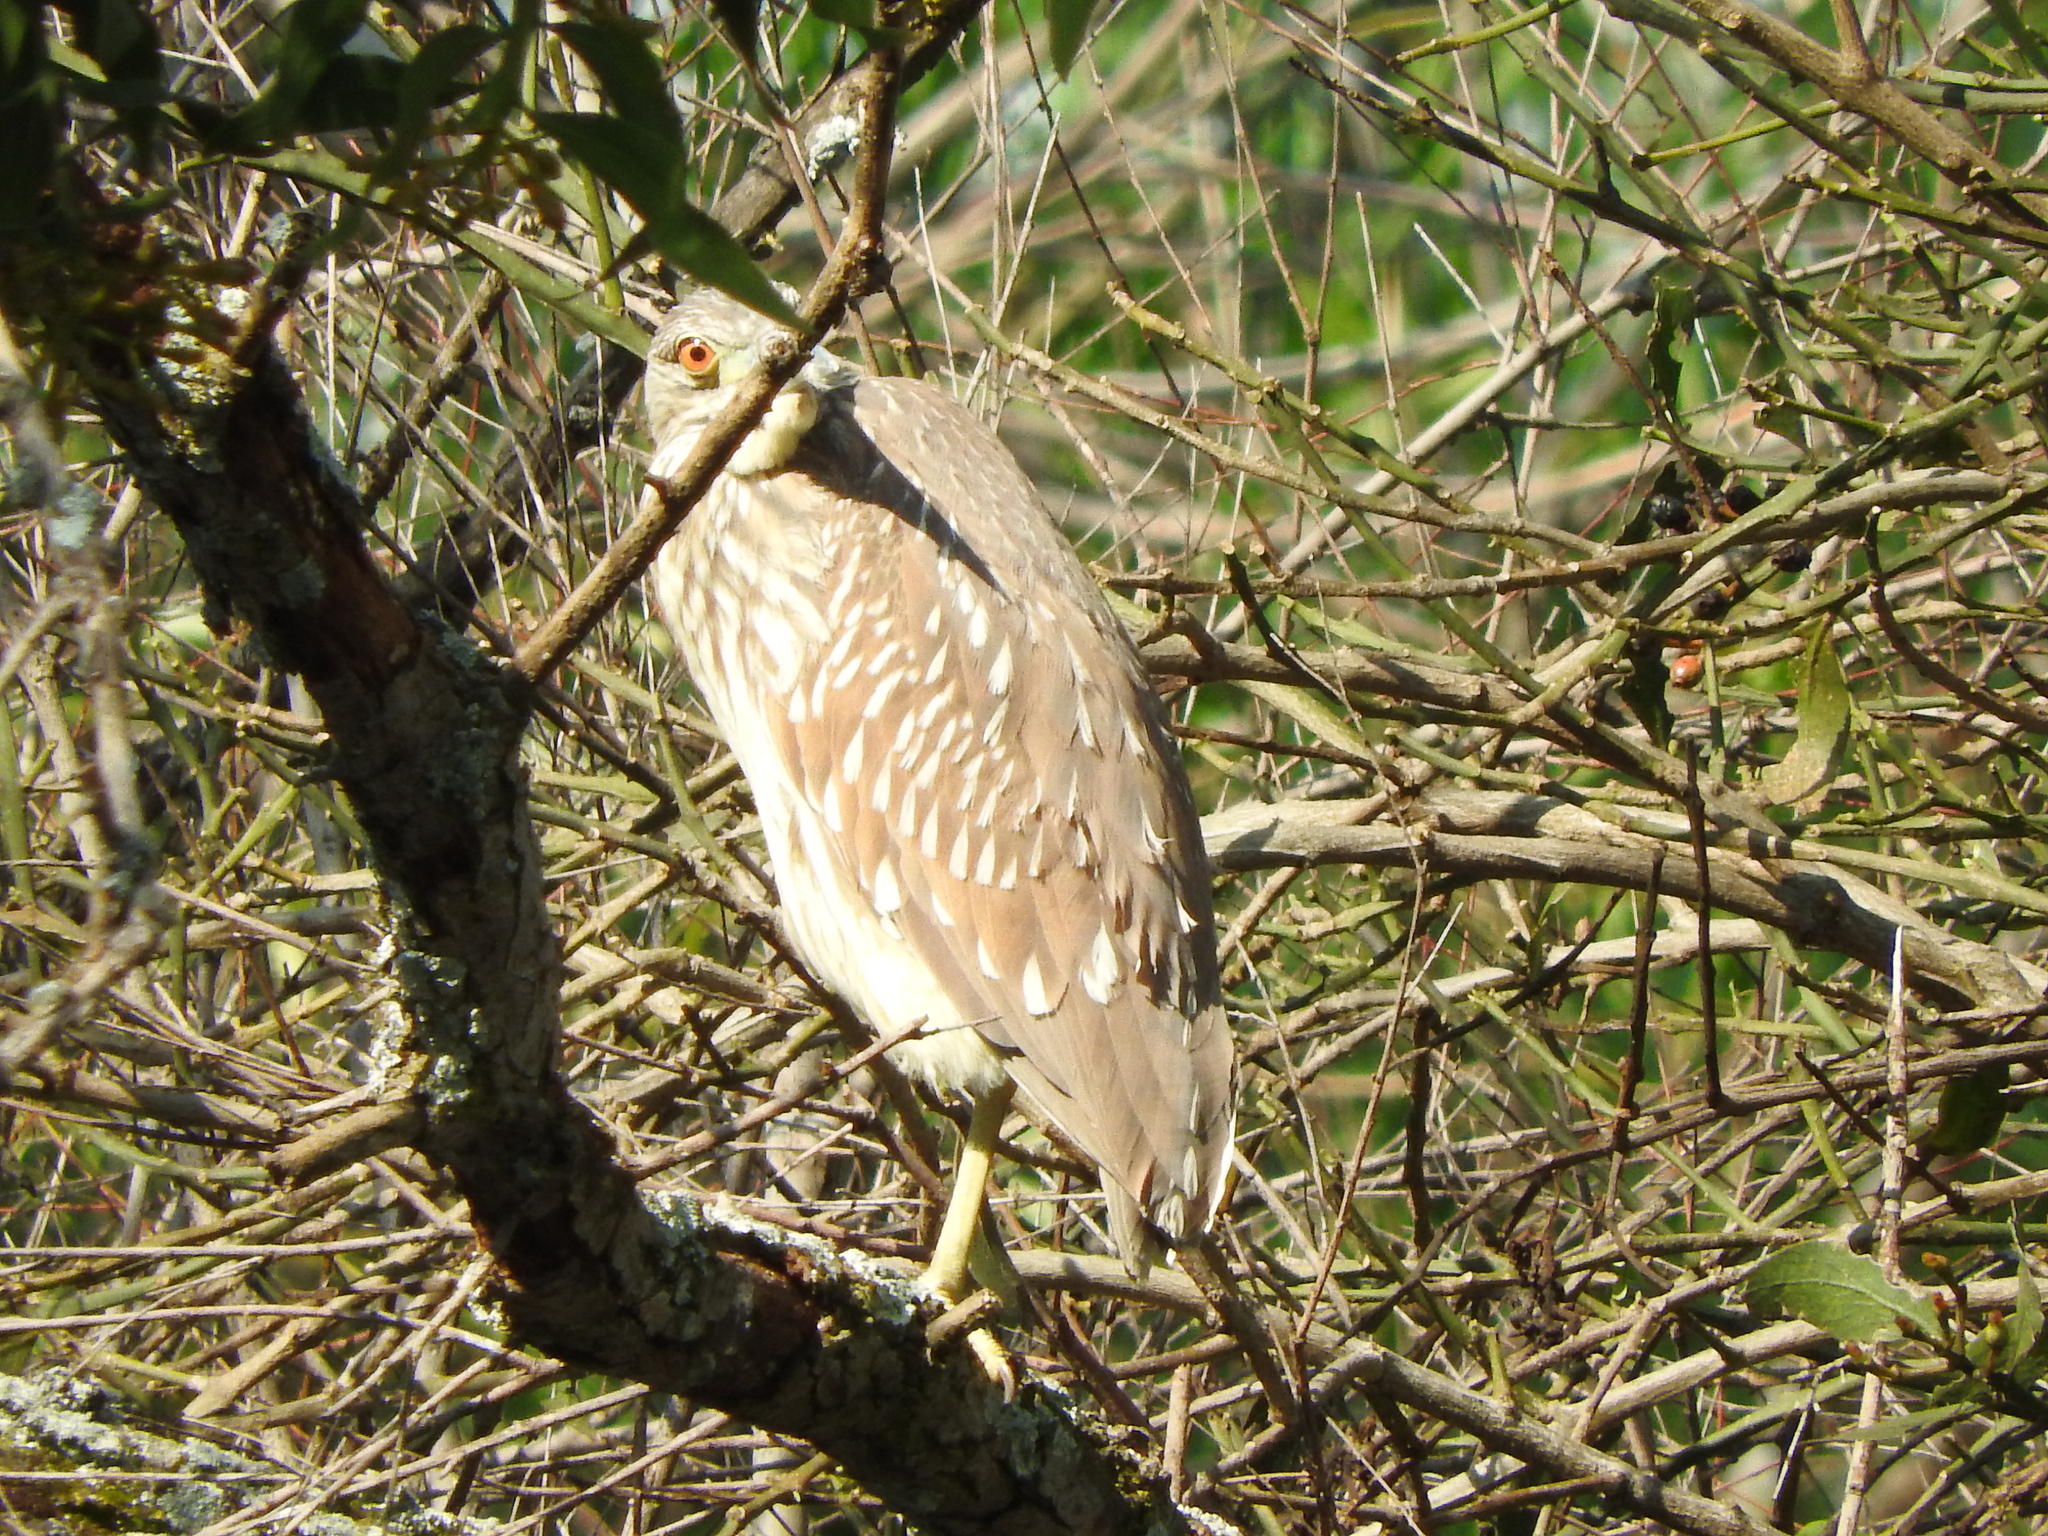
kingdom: Animalia
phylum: Chordata
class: Aves
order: Pelecaniformes
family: Ardeidae
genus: Nycticorax
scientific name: Nycticorax nycticorax
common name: Black-crowned night heron
